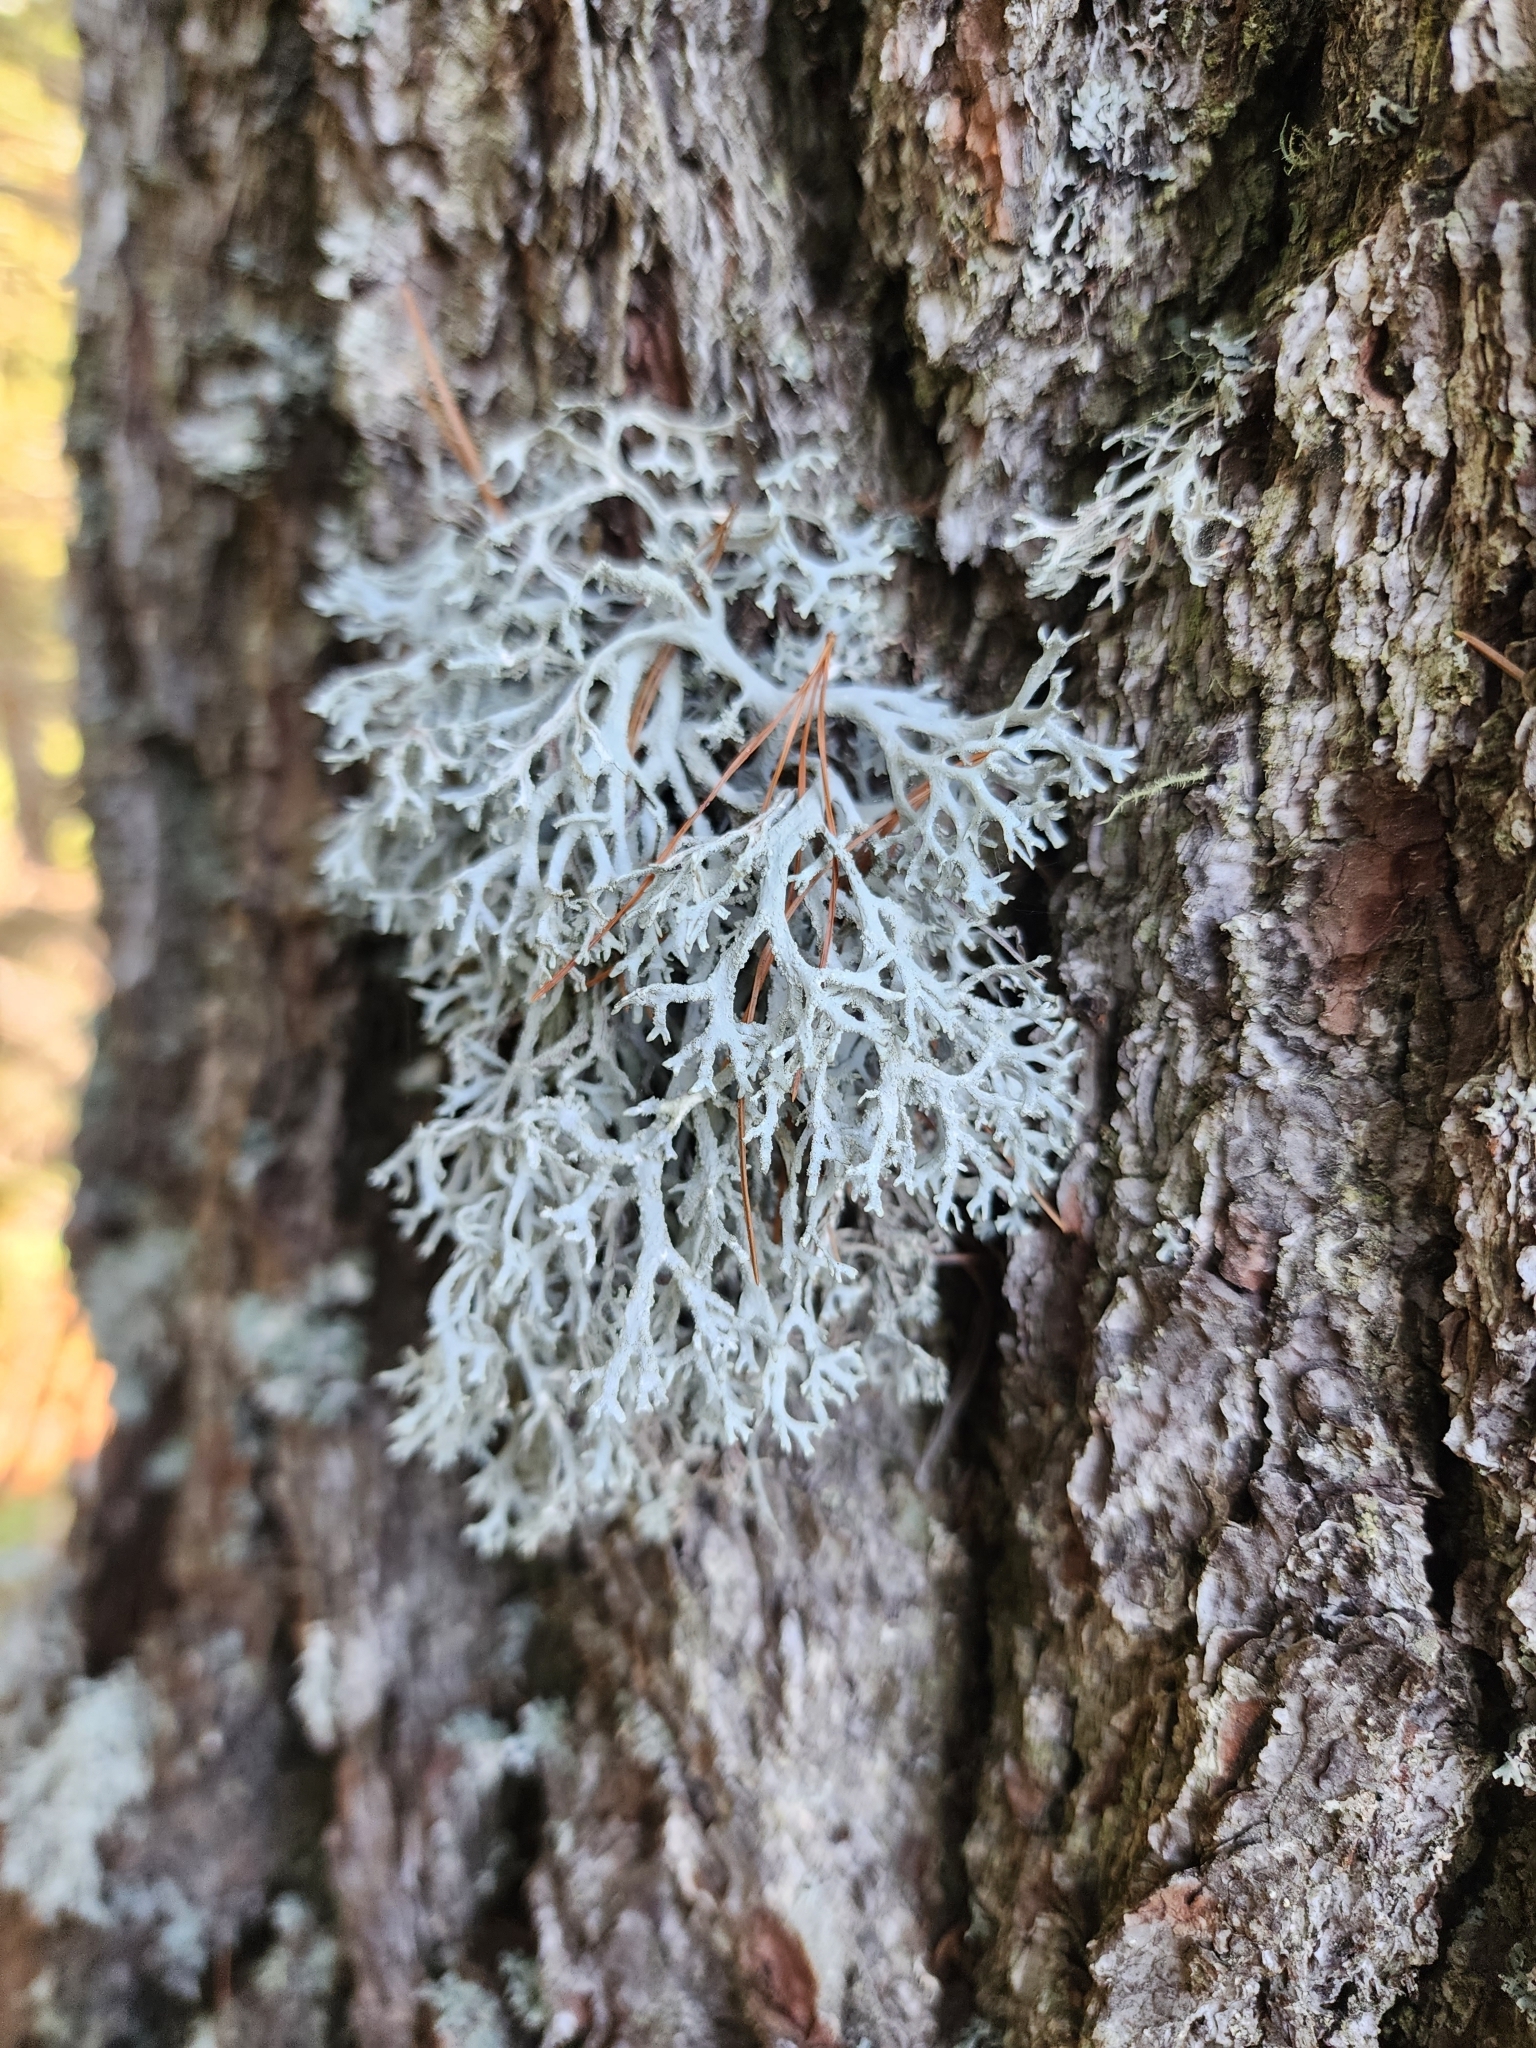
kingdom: Fungi
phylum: Ascomycota
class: Lecanoromycetes
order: Lecanorales
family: Parmeliaceae
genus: Pseudevernia
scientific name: Pseudevernia consocians
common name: Common antler lichen
